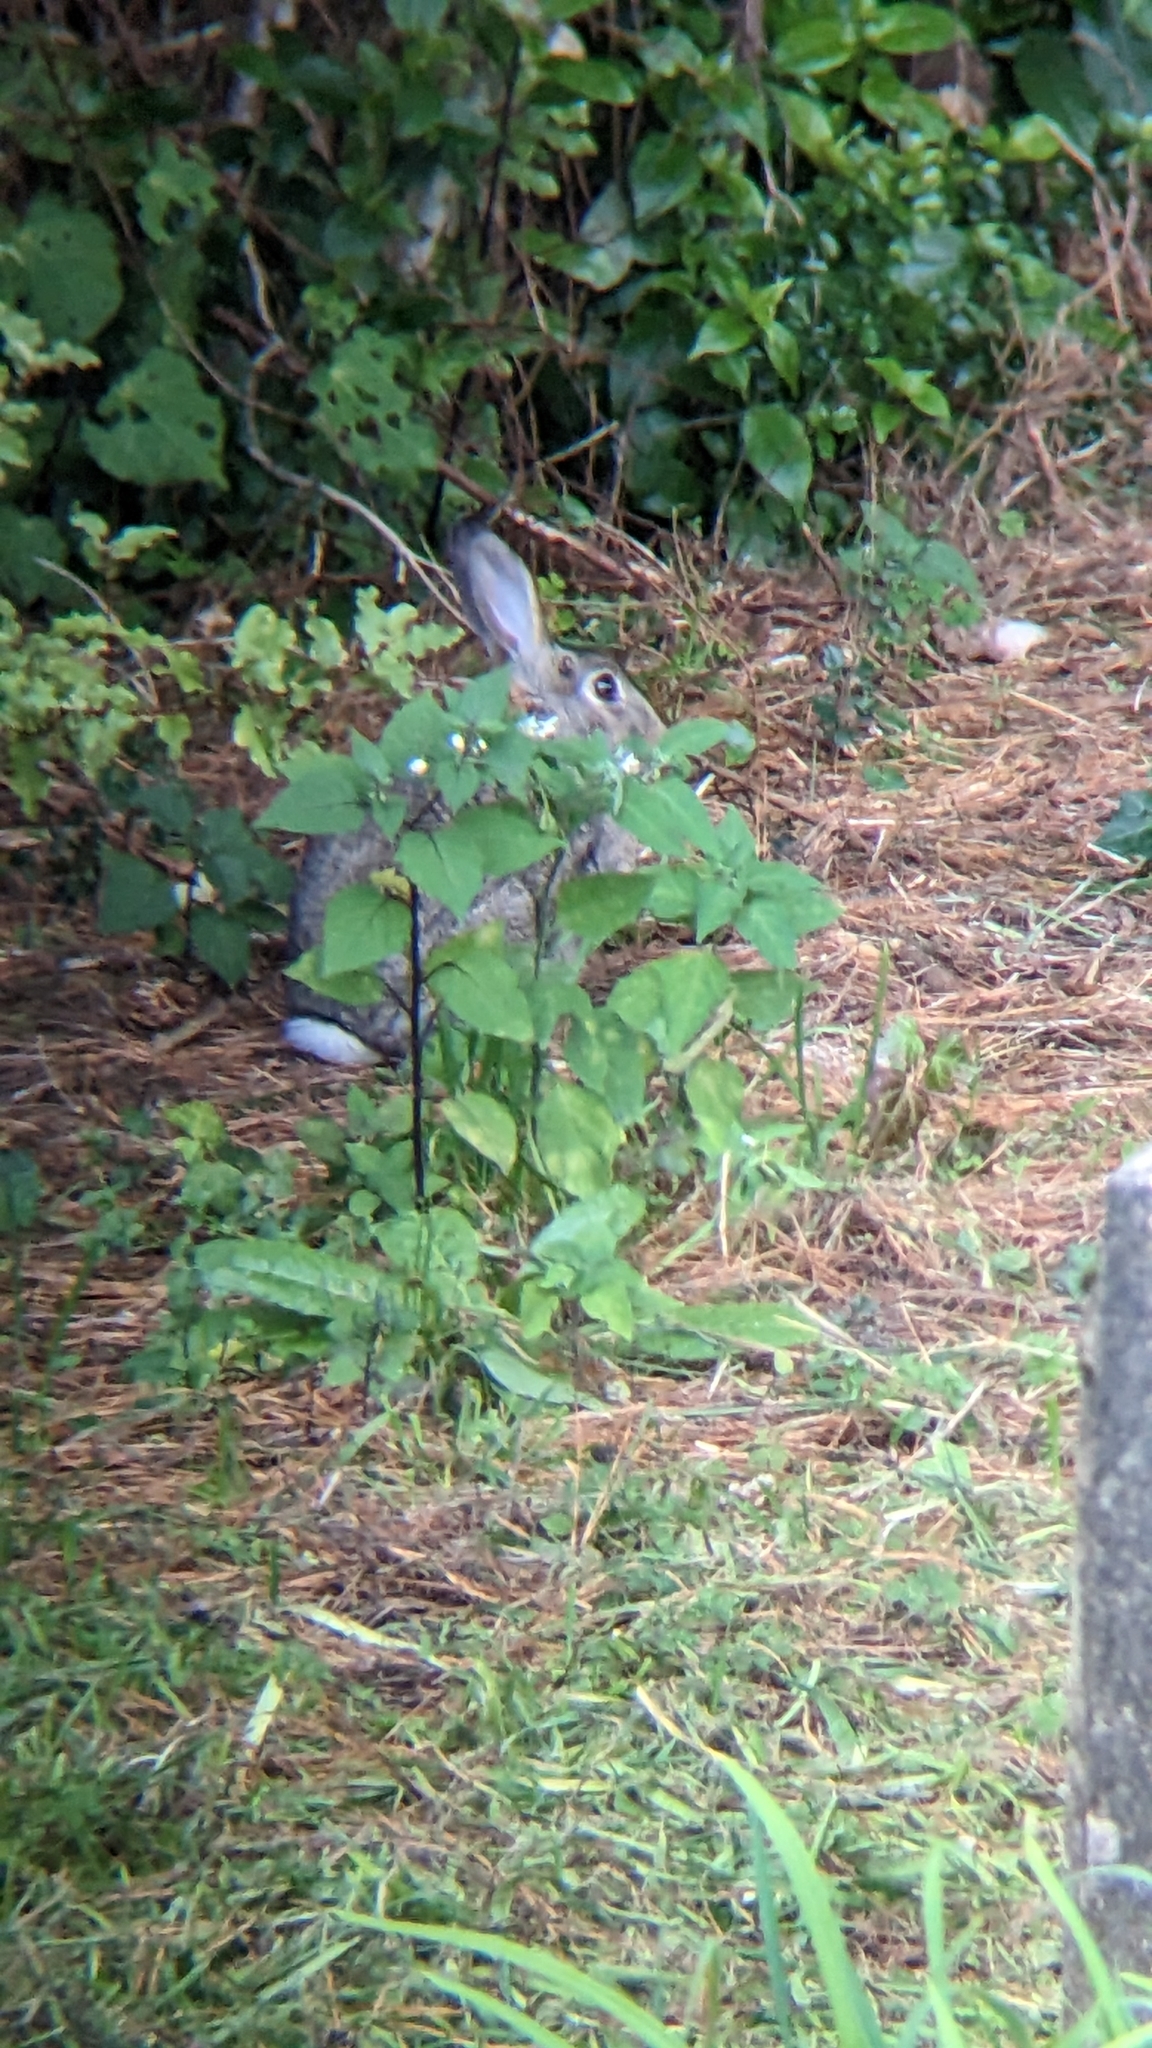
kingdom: Animalia
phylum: Chordata
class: Mammalia
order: Lagomorpha
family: Leporidae
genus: Oryctolagus
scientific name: Oryctolagus cuniculus
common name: European rabbit
